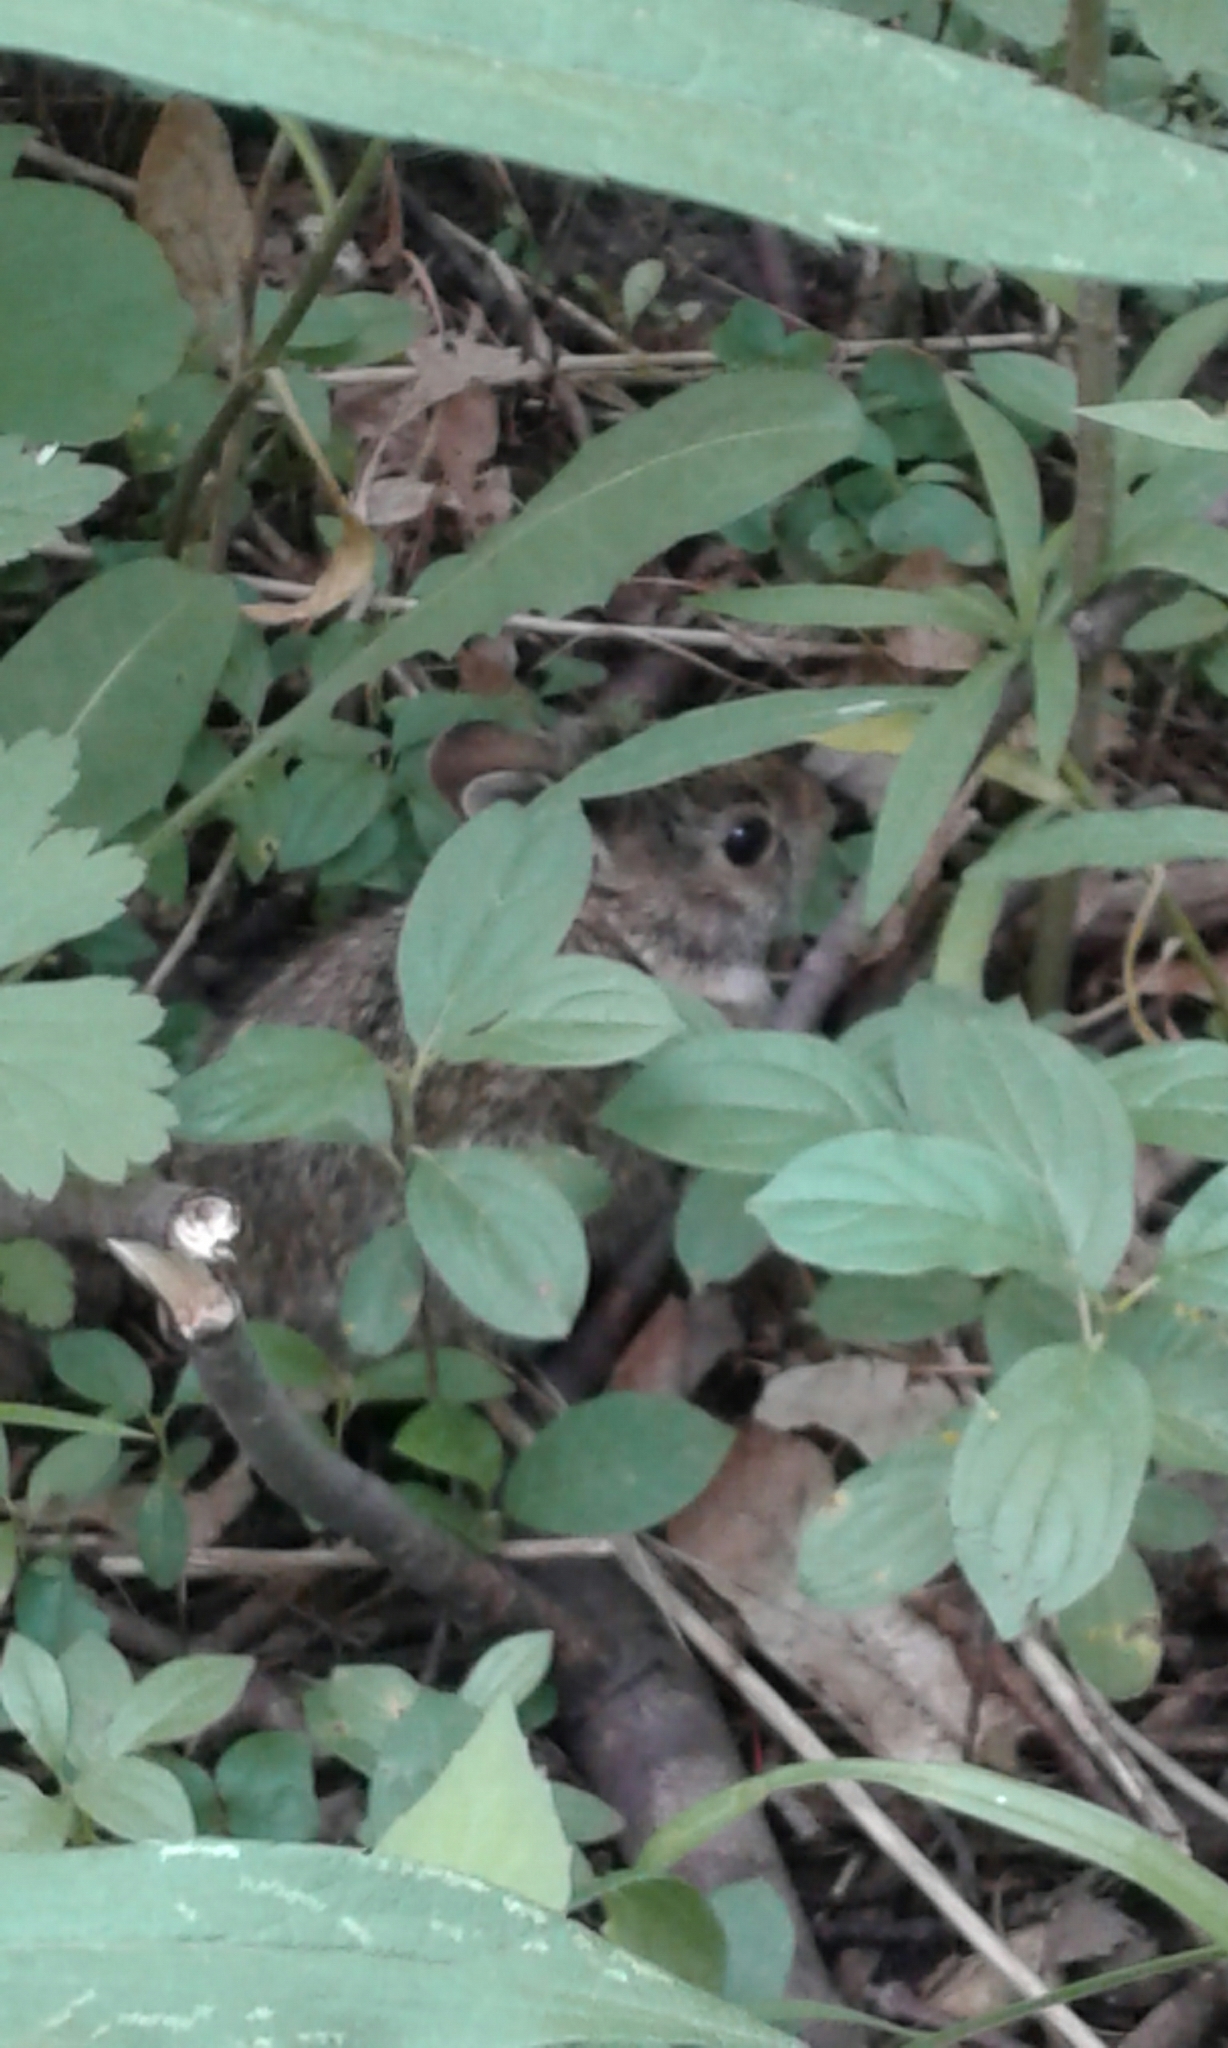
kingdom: Animalia
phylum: Chordata
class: Mammalia
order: Lagomorpha
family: Leporidae
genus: Sylvilagus
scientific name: Sylvilagus floridanus
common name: Eastern cottontail
